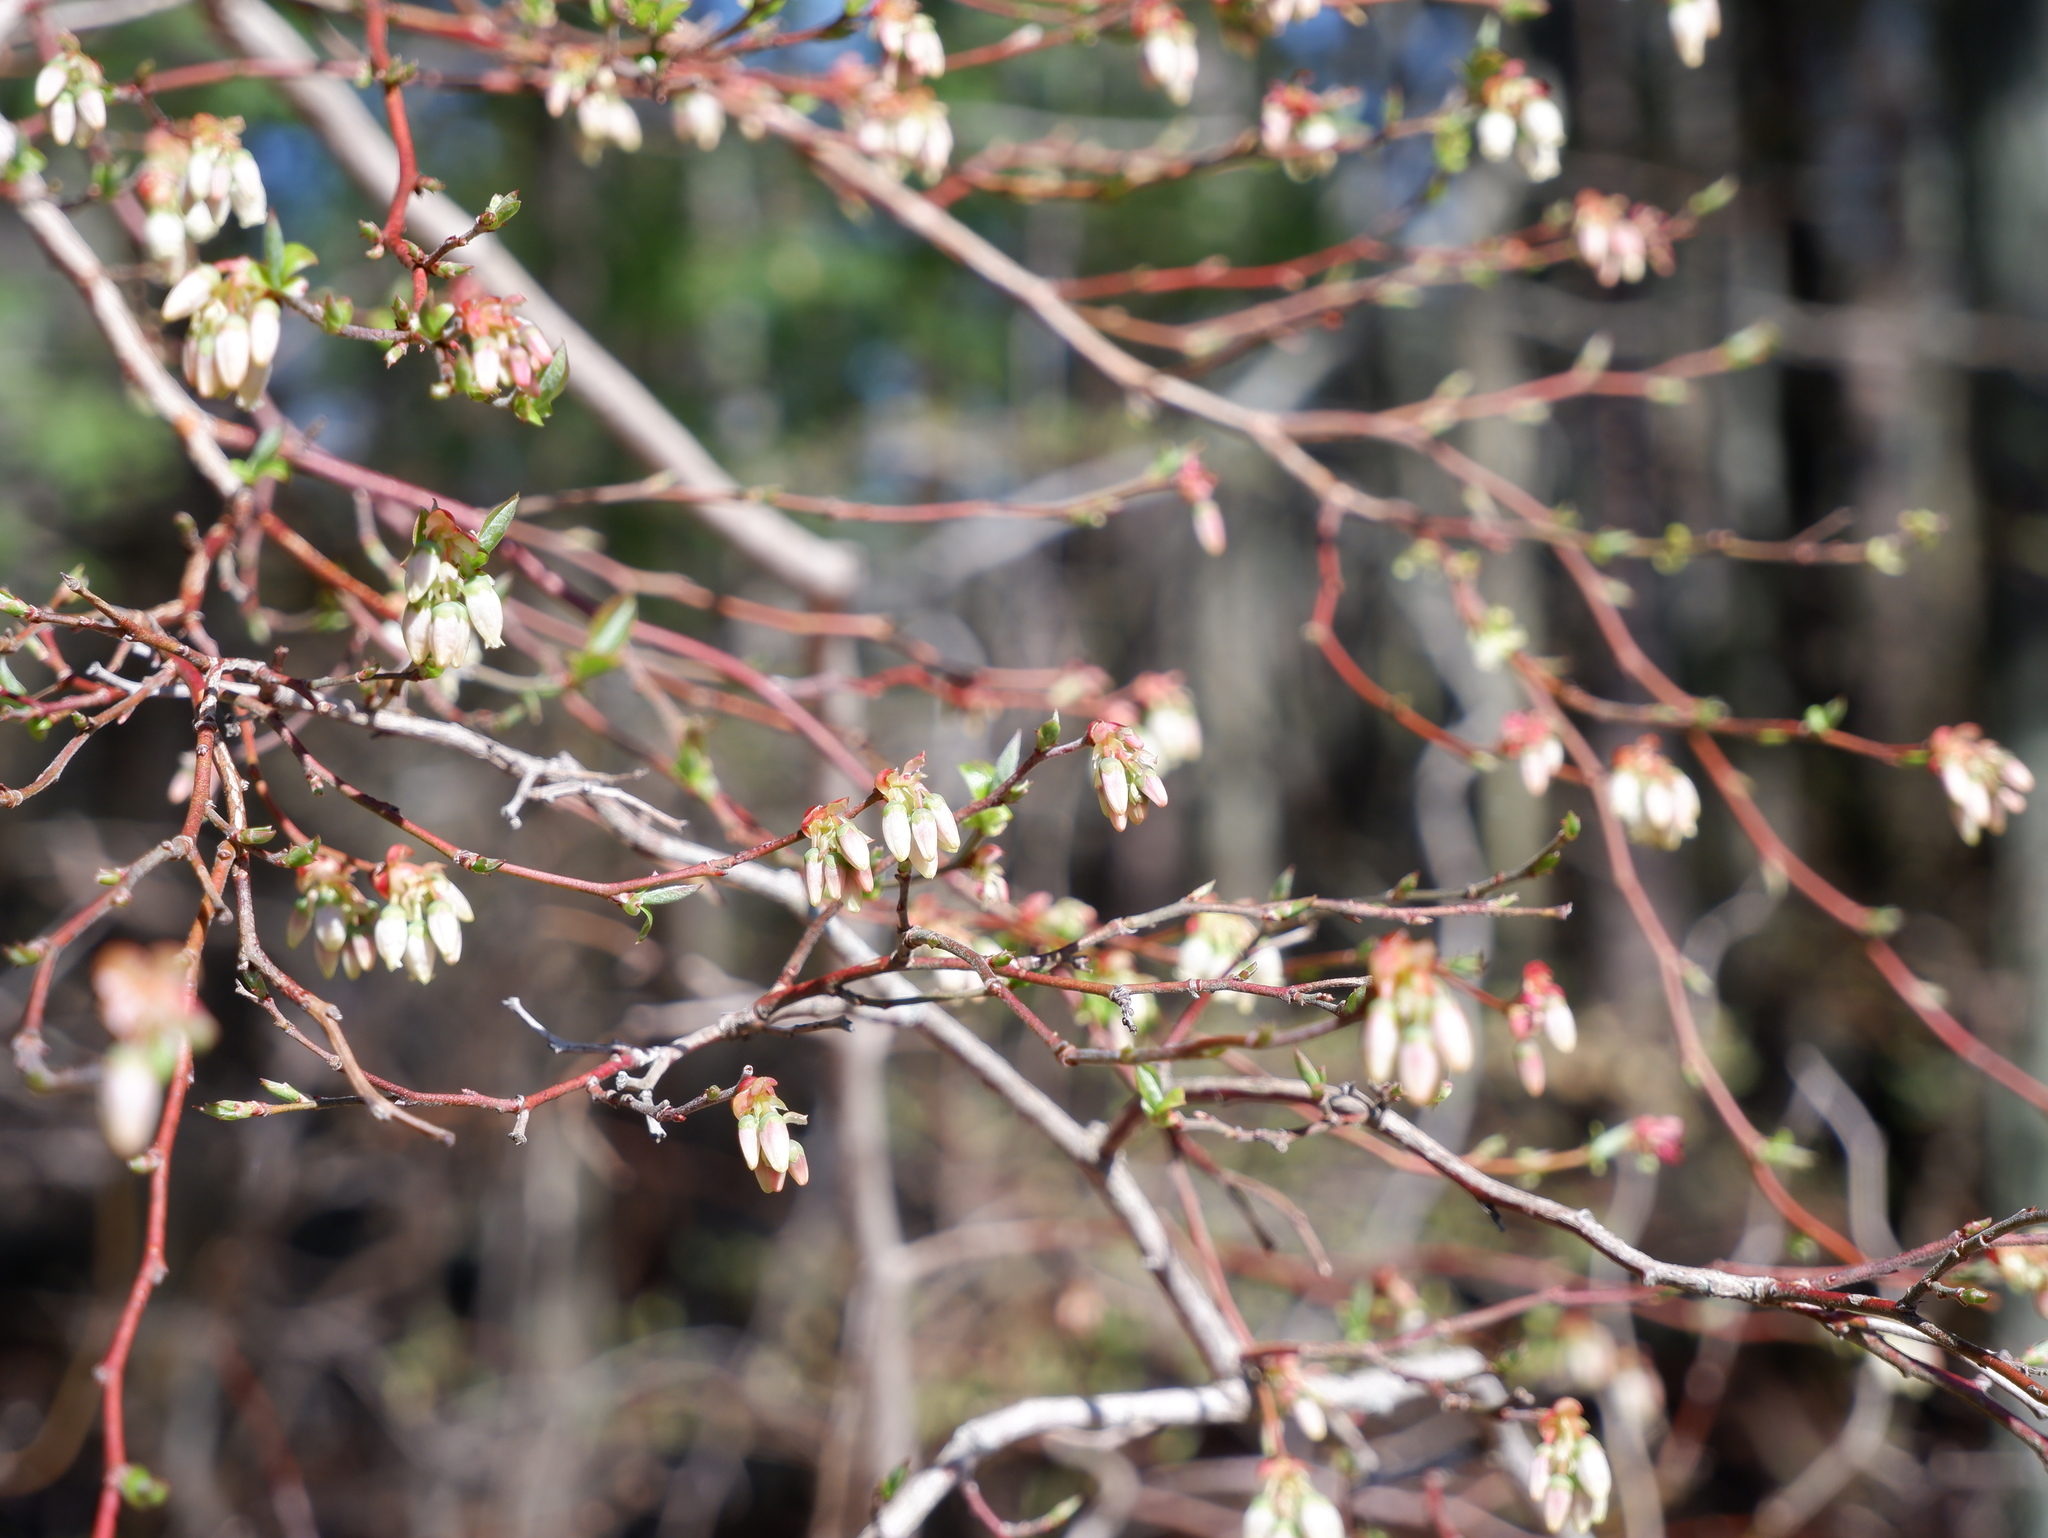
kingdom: Plantae
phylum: Tracheophyta
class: Magnoliopsida
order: Ericales
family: Ericaceae
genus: Vaccinium
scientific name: Vaccinium corymbosum
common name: Blueberry
